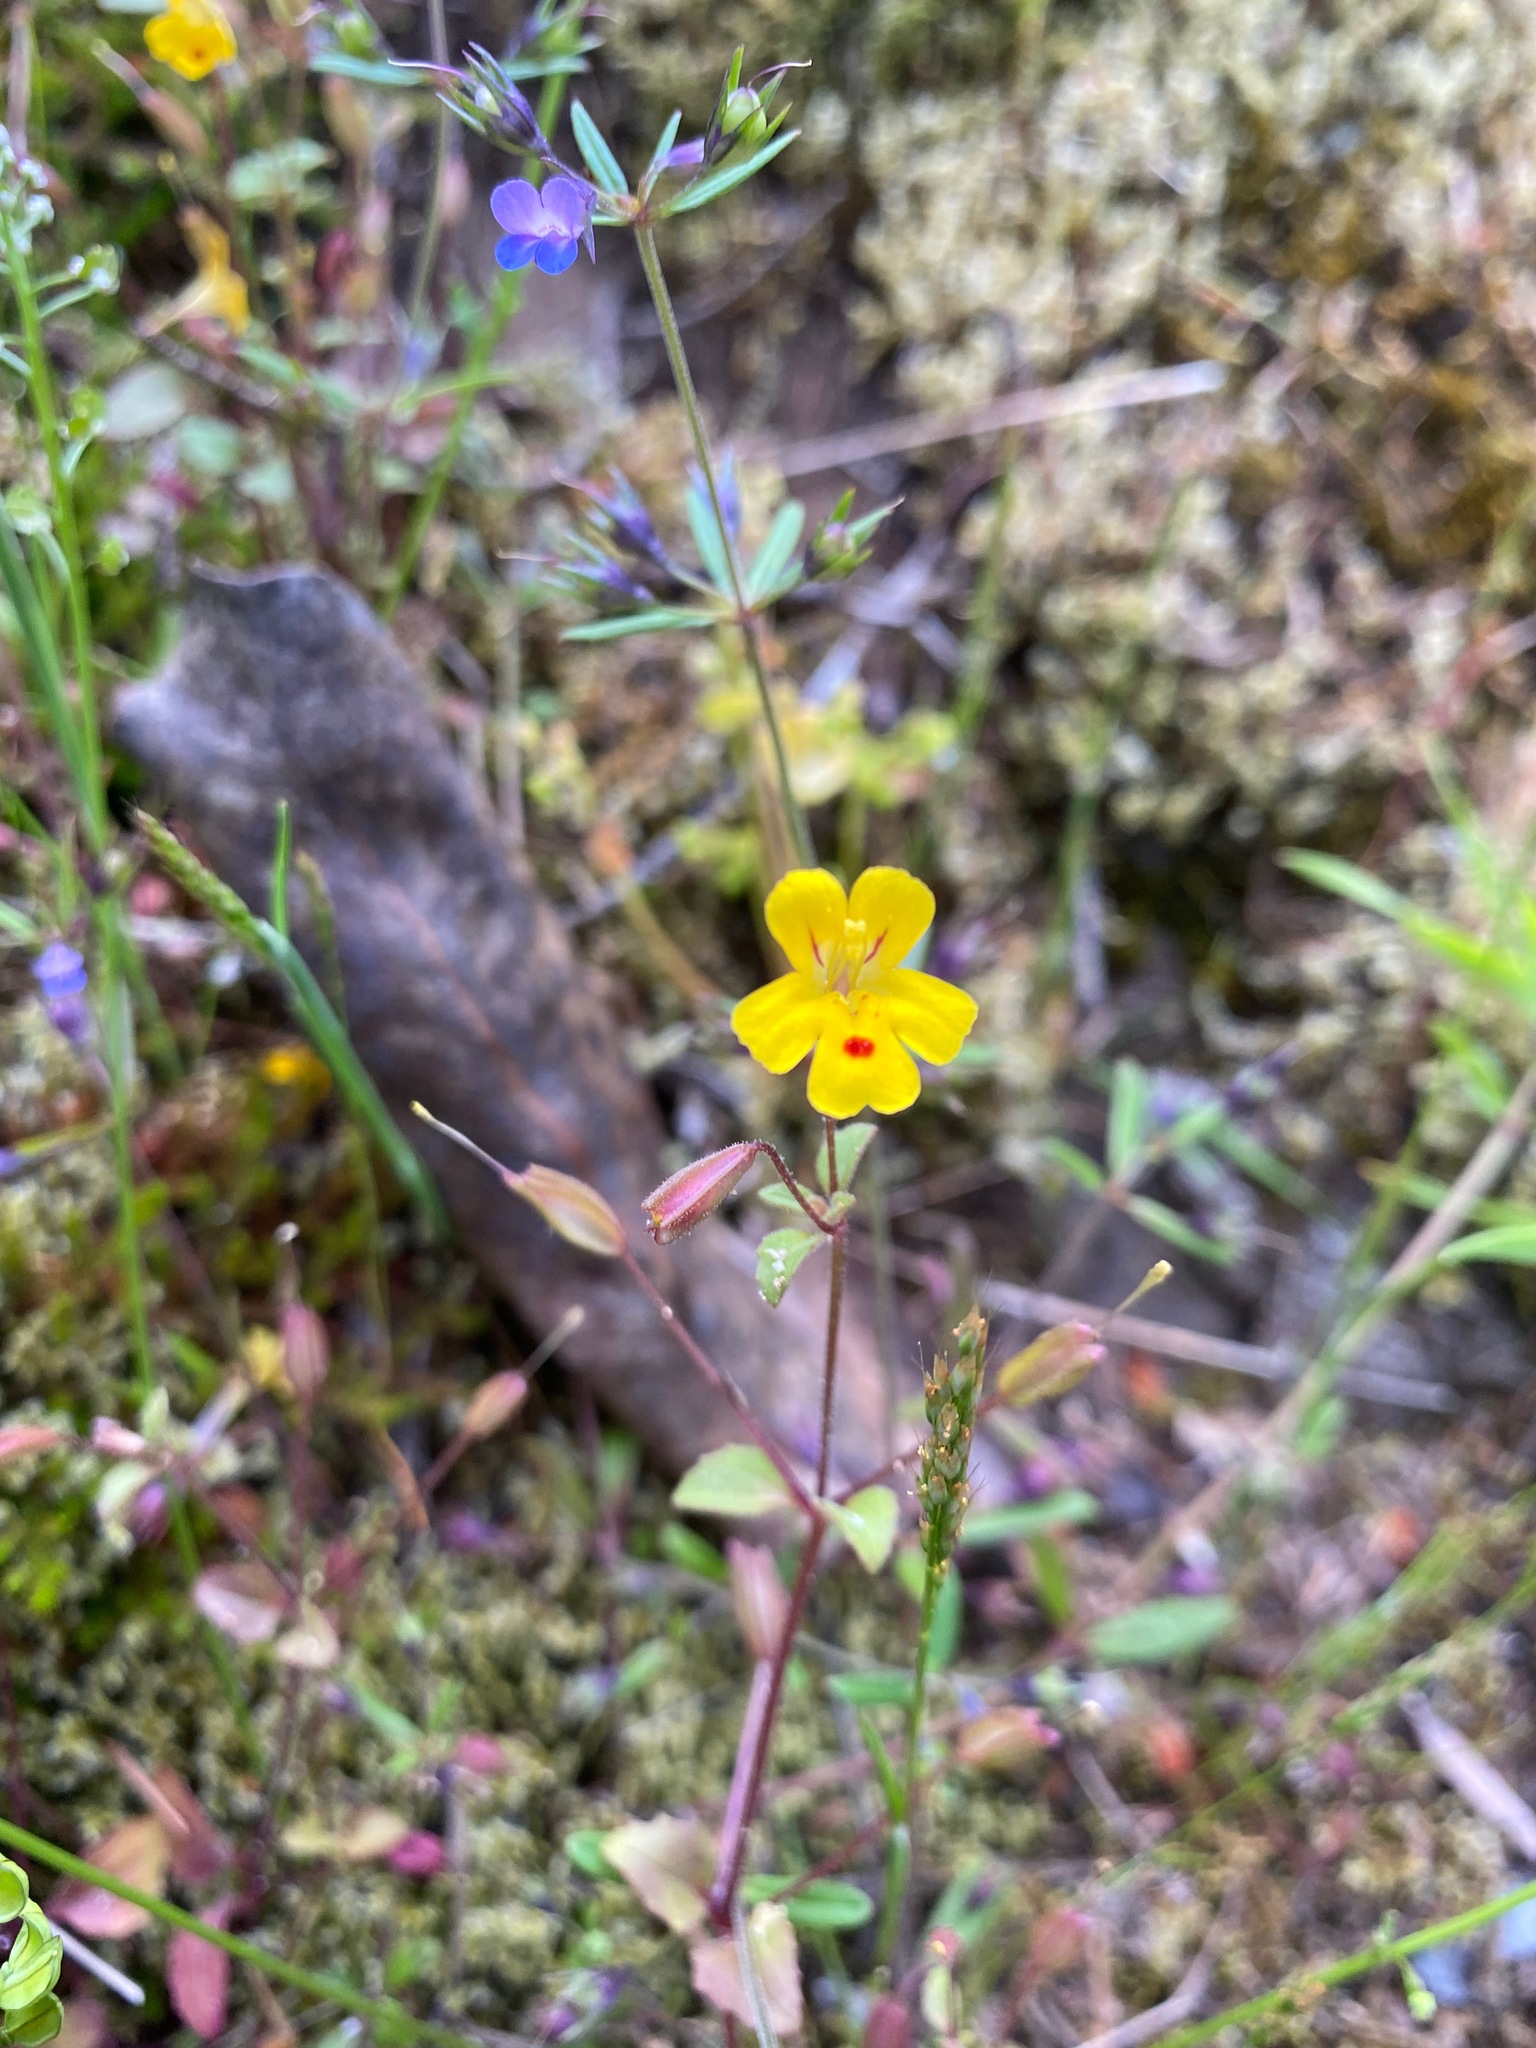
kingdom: Plantae
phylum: Tracheophyta
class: Magnoliopsida
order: Lamiales
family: Phrymaceae
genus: Erythranthe
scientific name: Erythranthe alsinoides
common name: Chickweed monkeyflower
